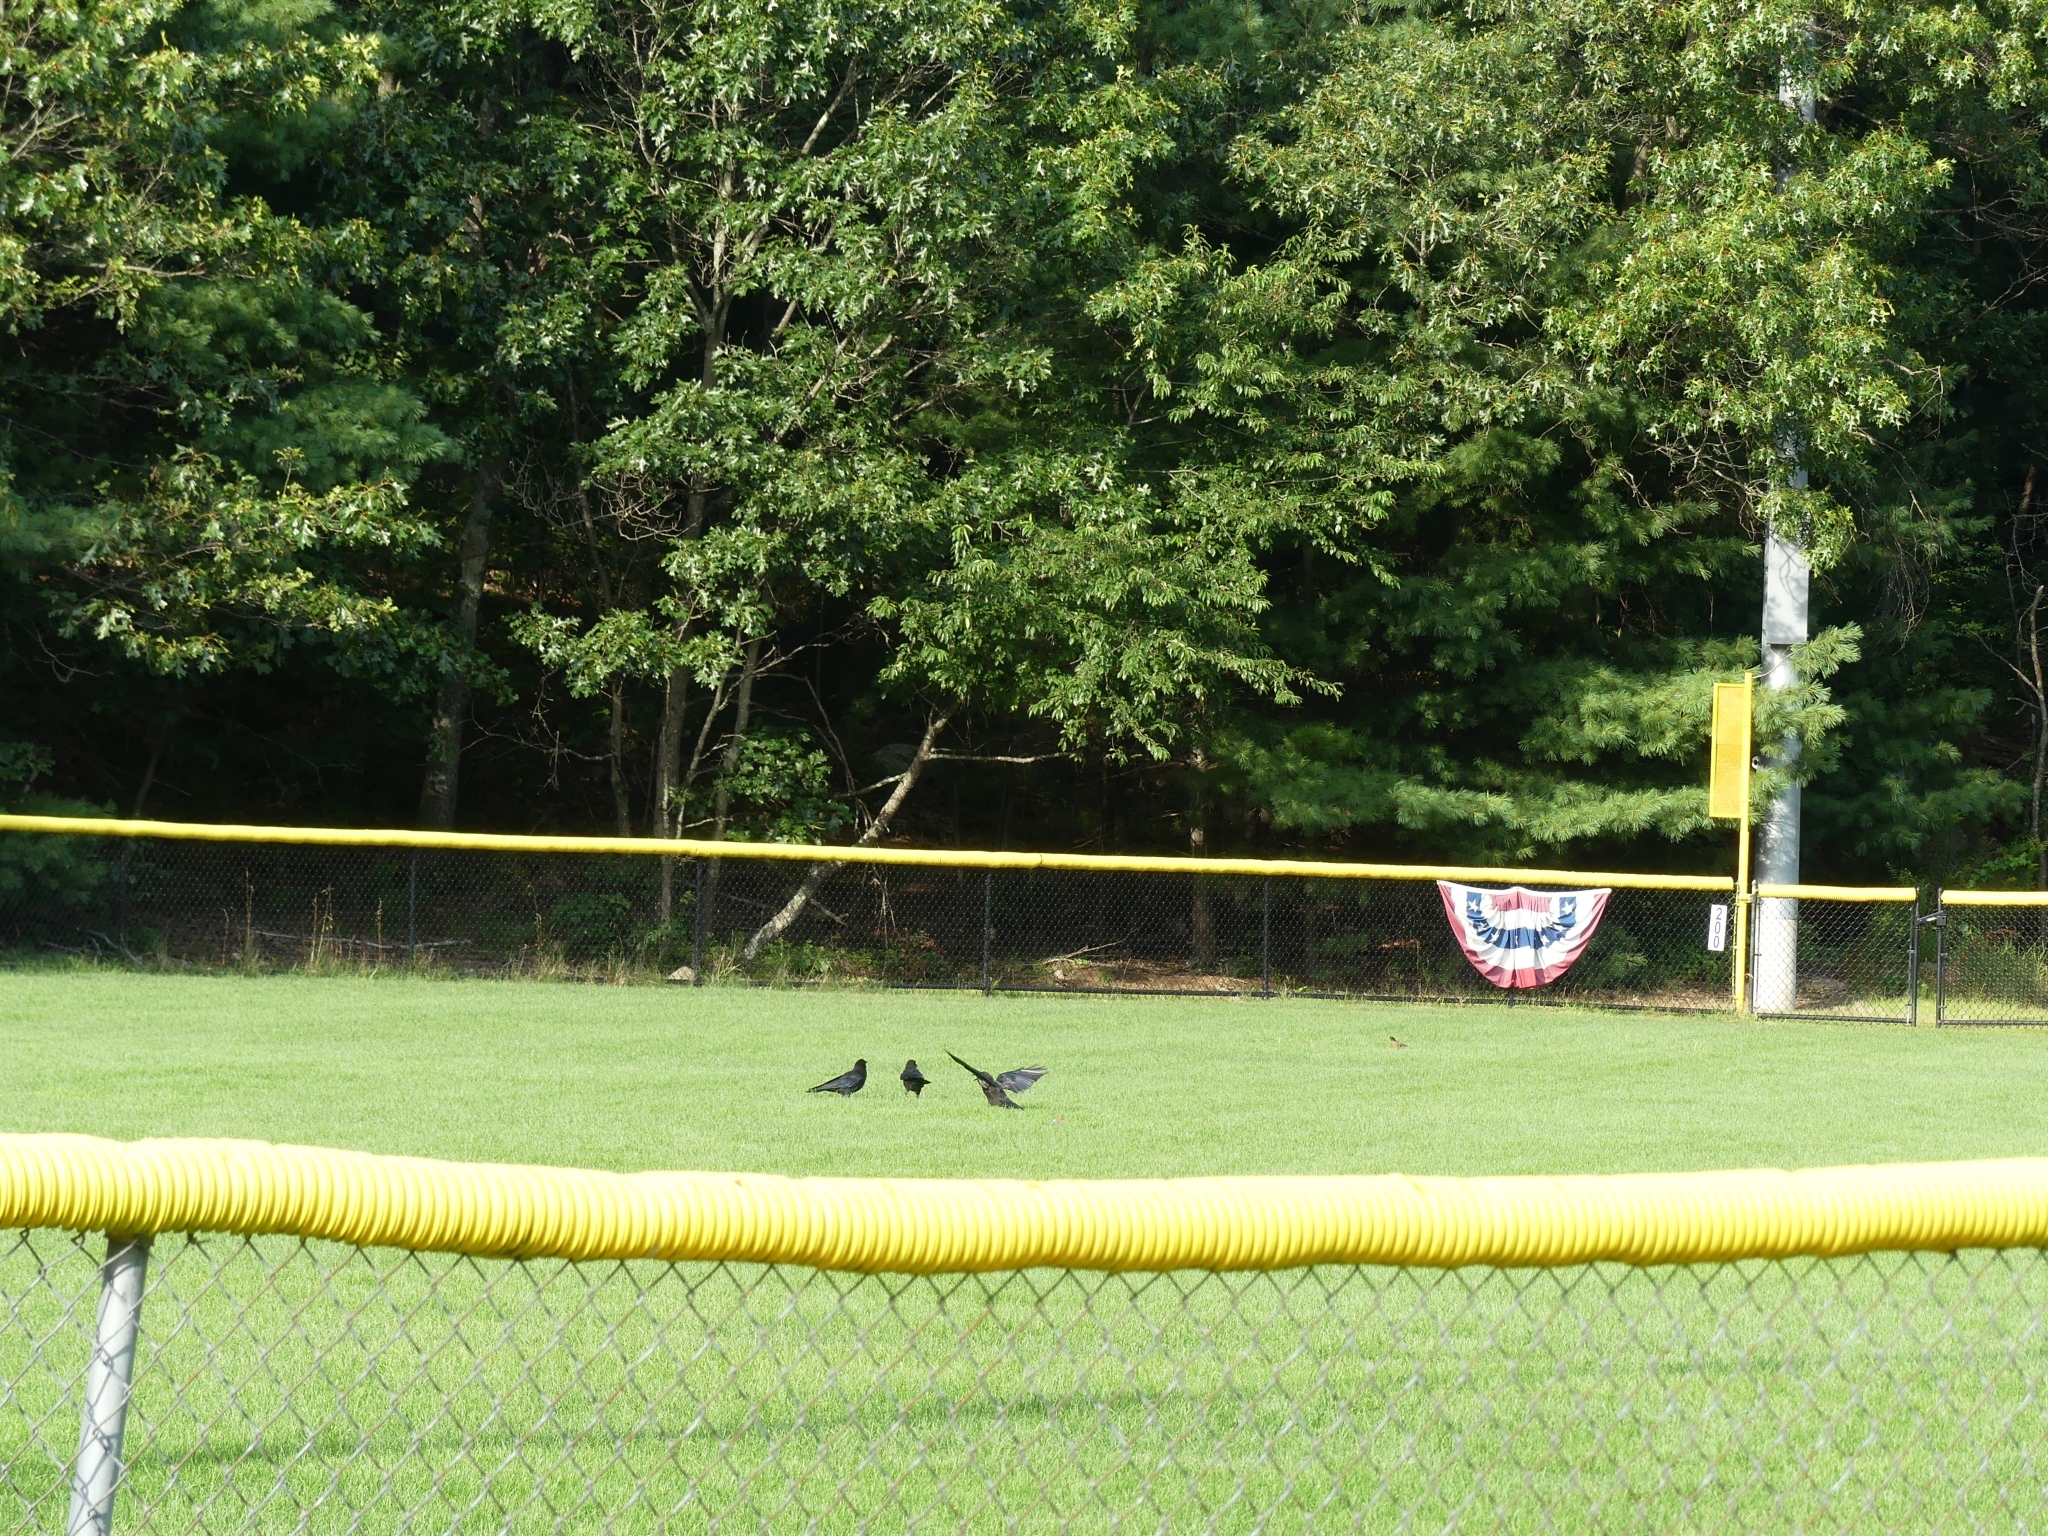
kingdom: Animalia
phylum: Chordata
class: Aves
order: Passeriformes
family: Corvidae
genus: Corvus
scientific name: Corvus
